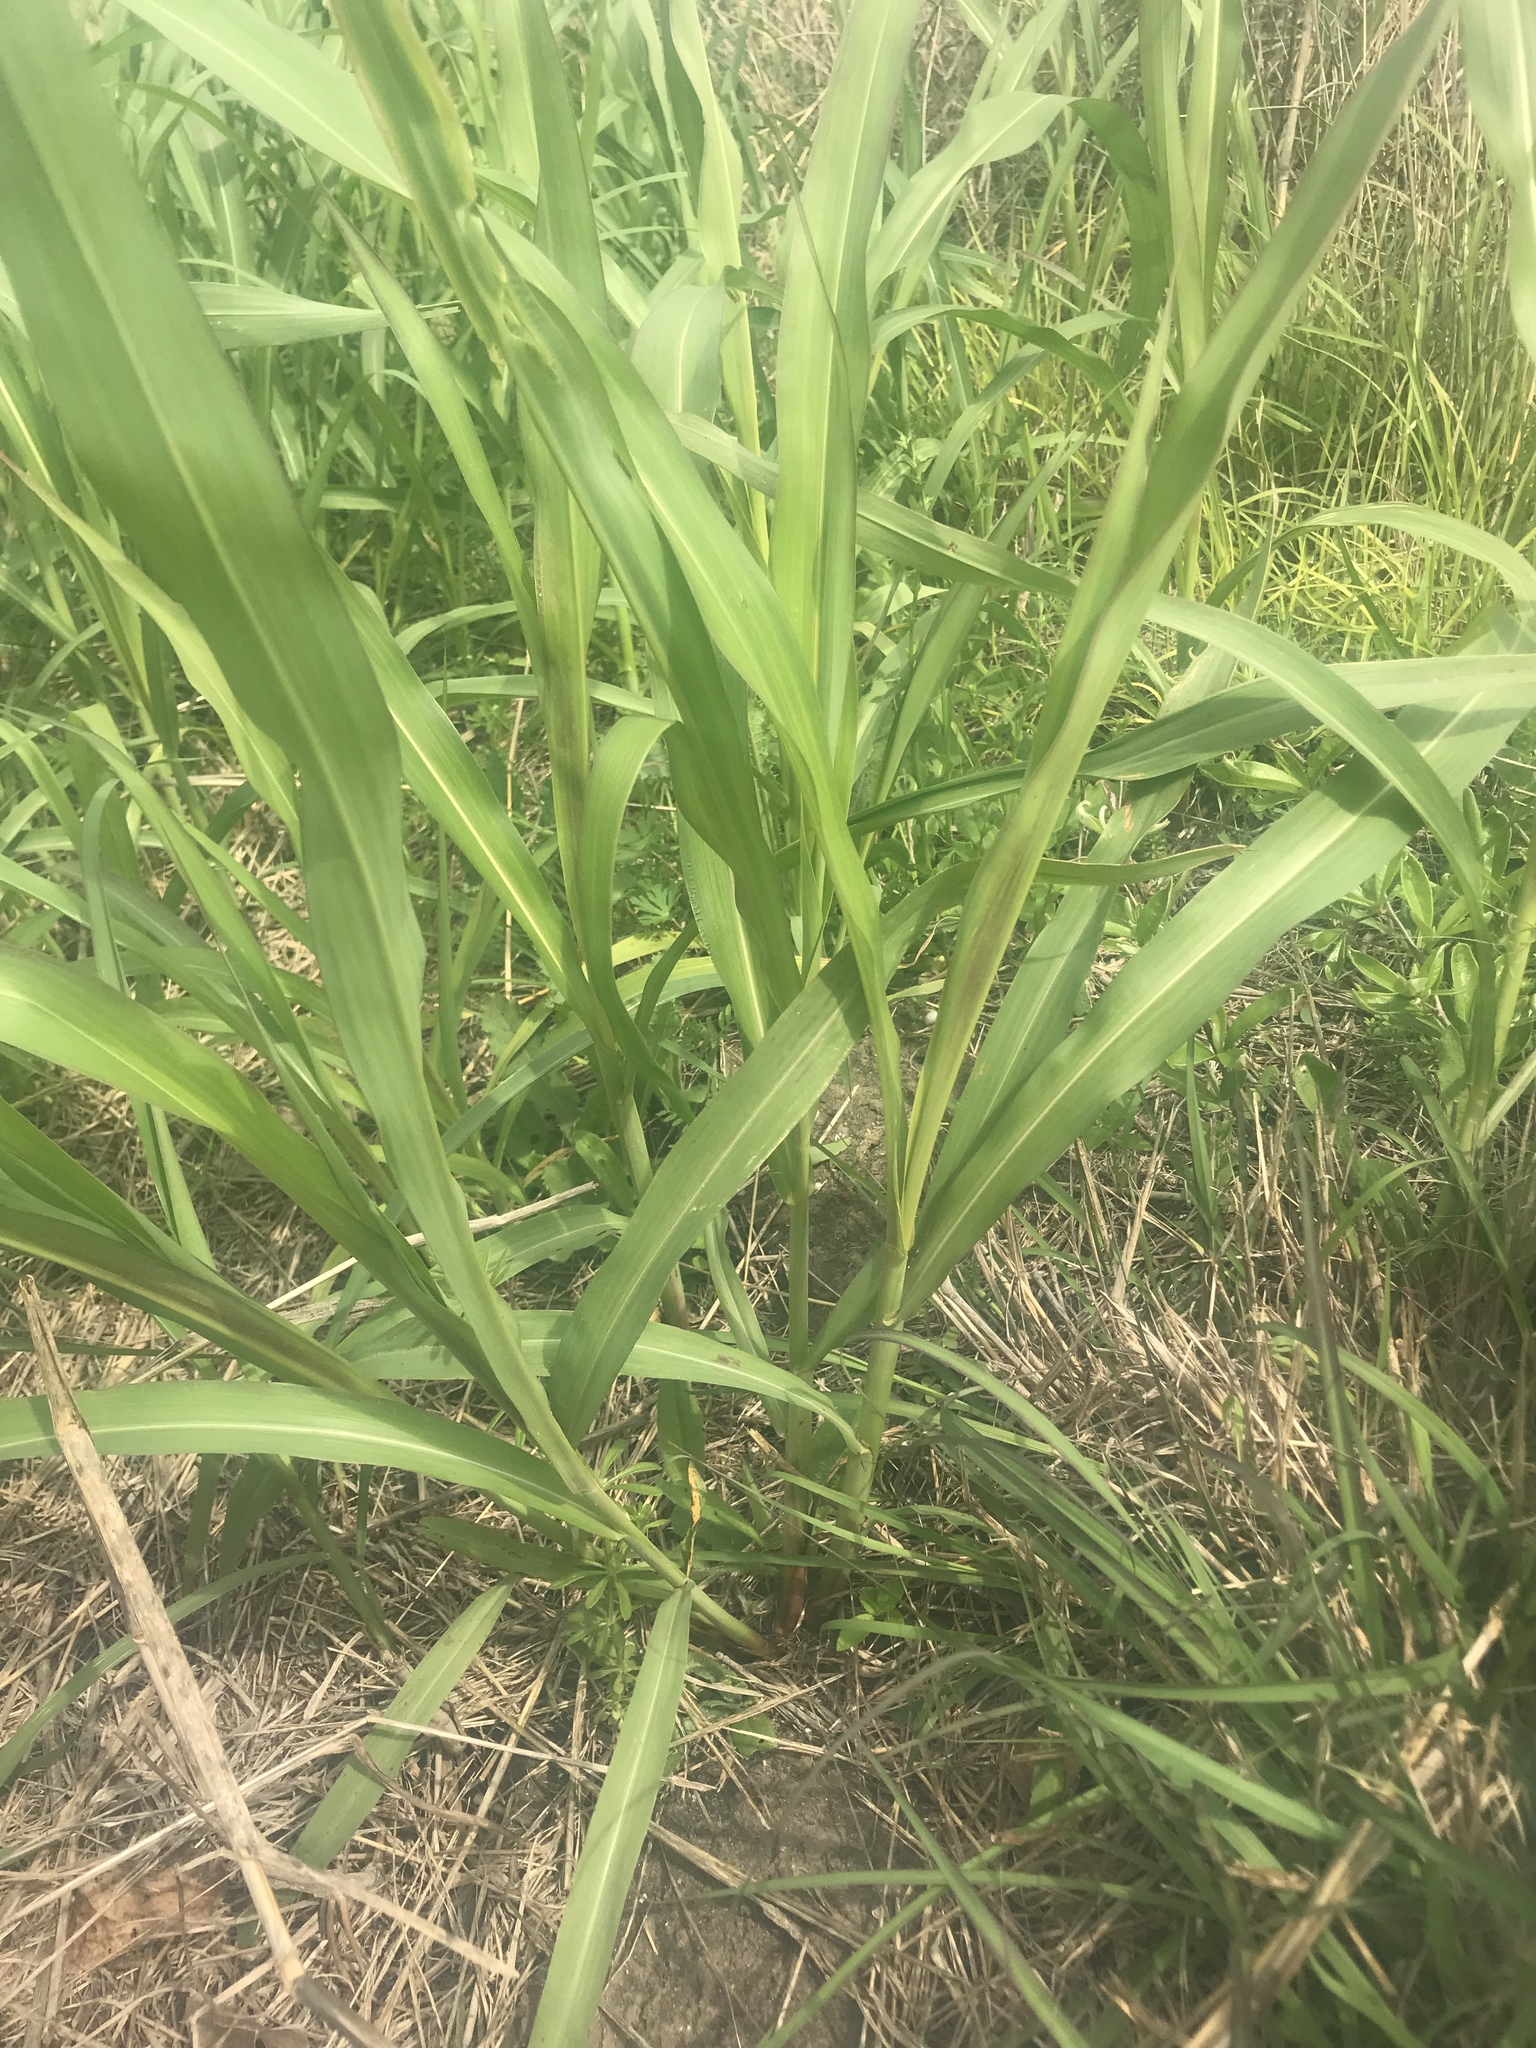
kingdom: Plantae
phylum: Tracheophyta
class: Liliopsida
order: Poales
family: Poaceae
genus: Sorghum
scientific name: Sorghum halepense
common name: Johnson-grass
